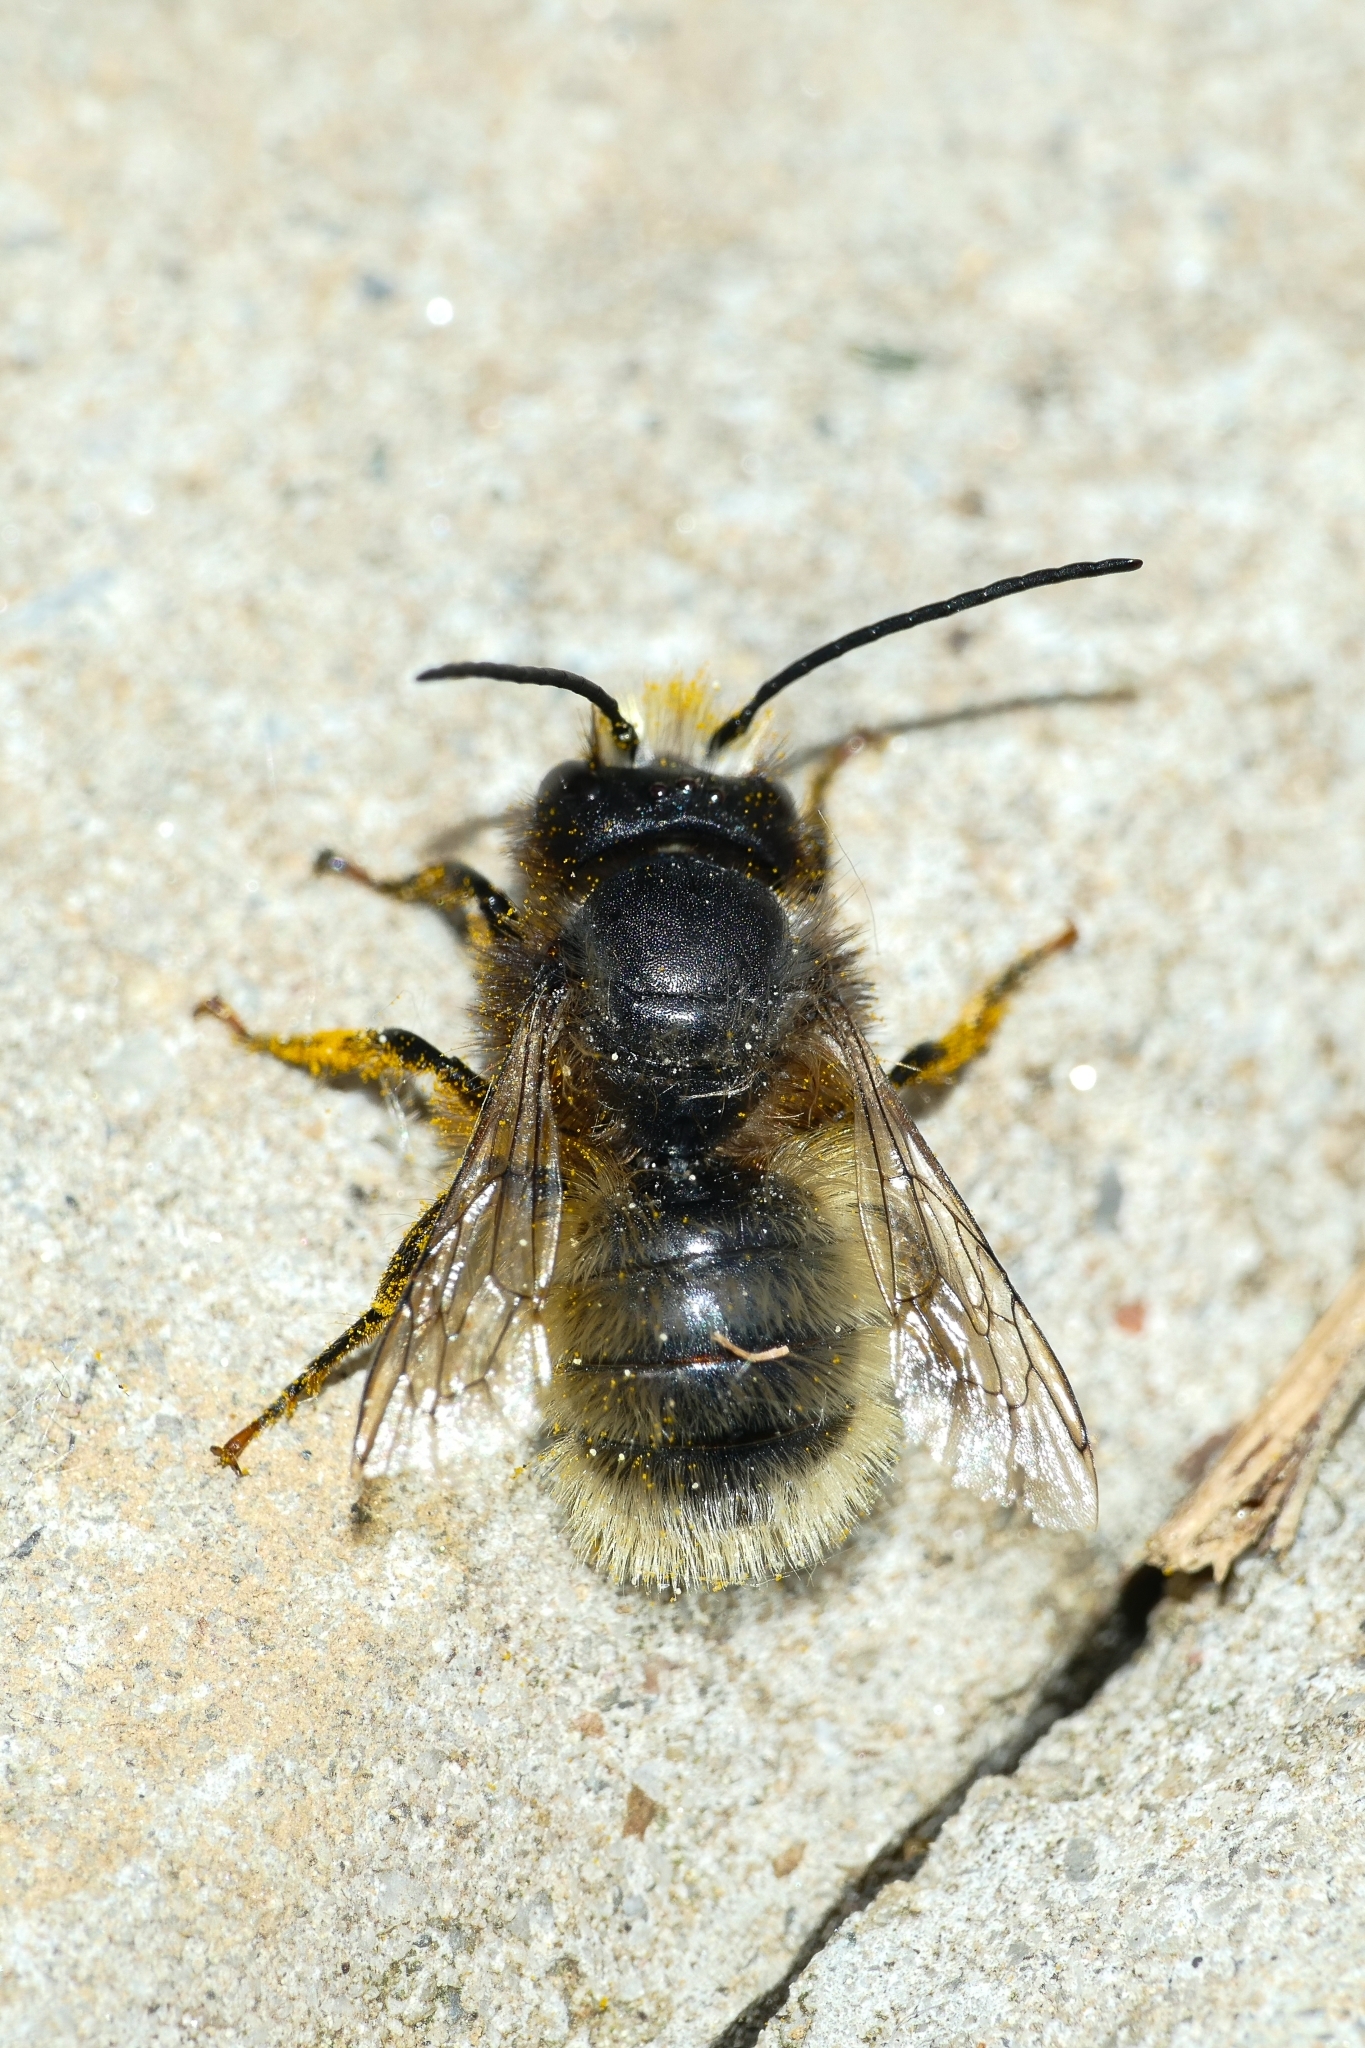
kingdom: Animalia
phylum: Arthropoda
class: Insecta
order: Hymenoptera
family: Megachilidae
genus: Osmia
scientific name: Osmia cornuta
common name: Mason bee
